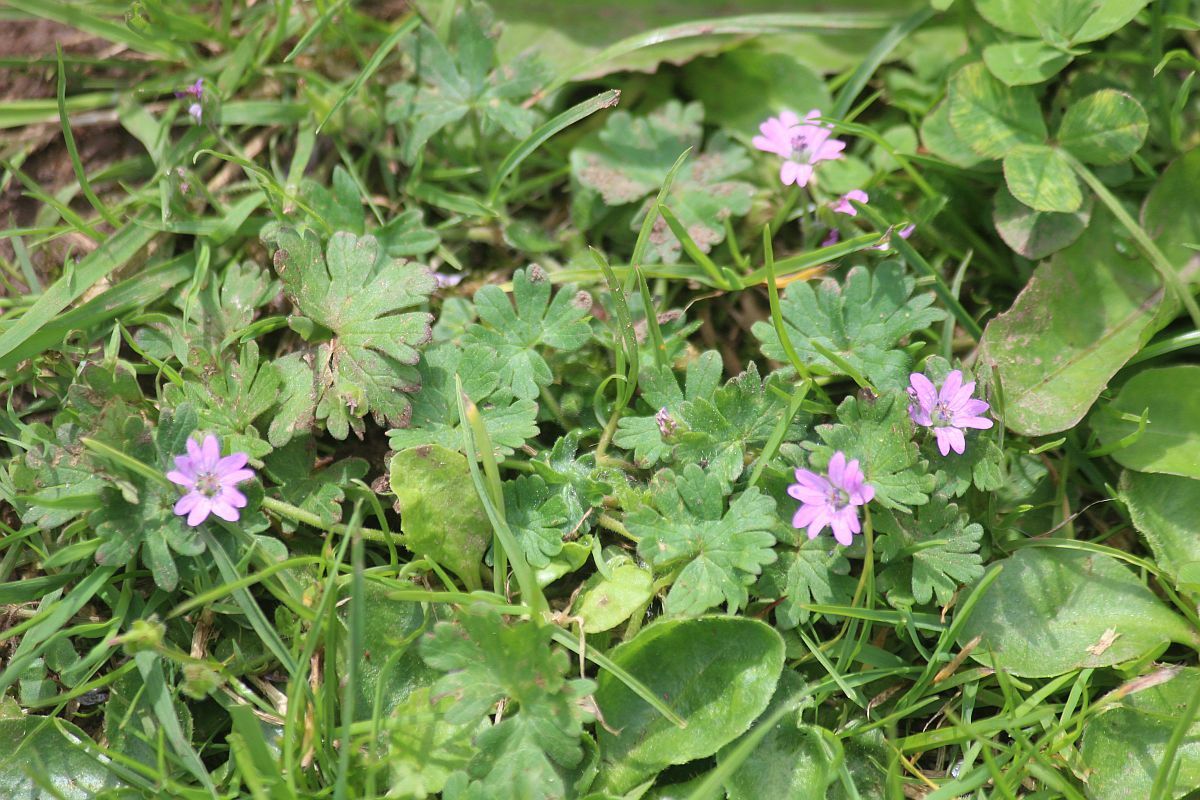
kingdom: Plantae
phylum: Tracheophyta
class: Magnoliopsida
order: Geraniales
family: Geraniaceae
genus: Geranium
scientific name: Geranium molle
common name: Dove's-foot crane's-bill
